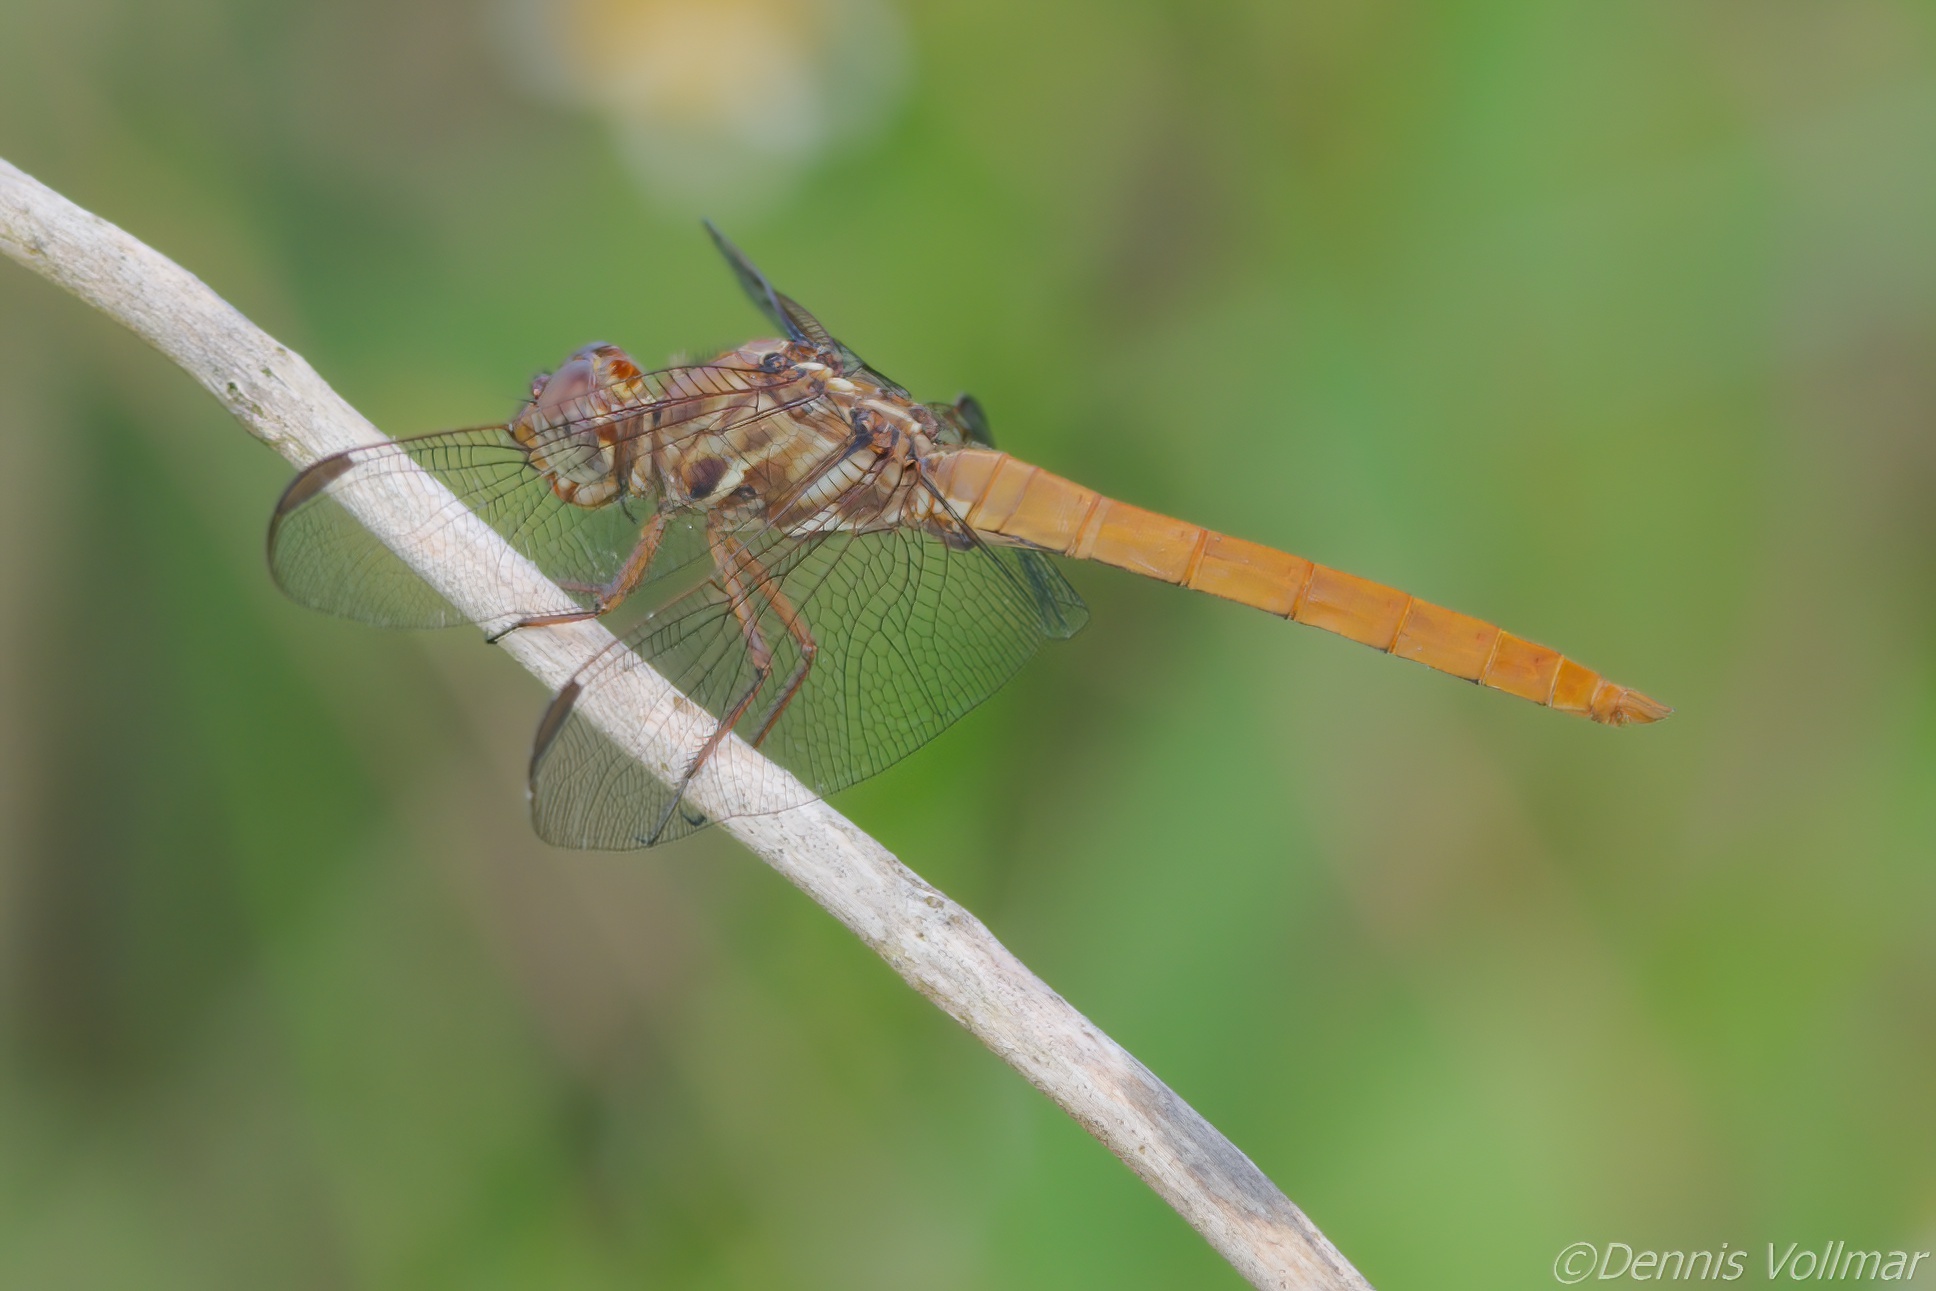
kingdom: Animalia
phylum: Arthropoda
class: Insecta
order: Odonata
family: Libellulidae
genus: Orthemis
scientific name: Orthemis ferruginea
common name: Roseate skimmer
